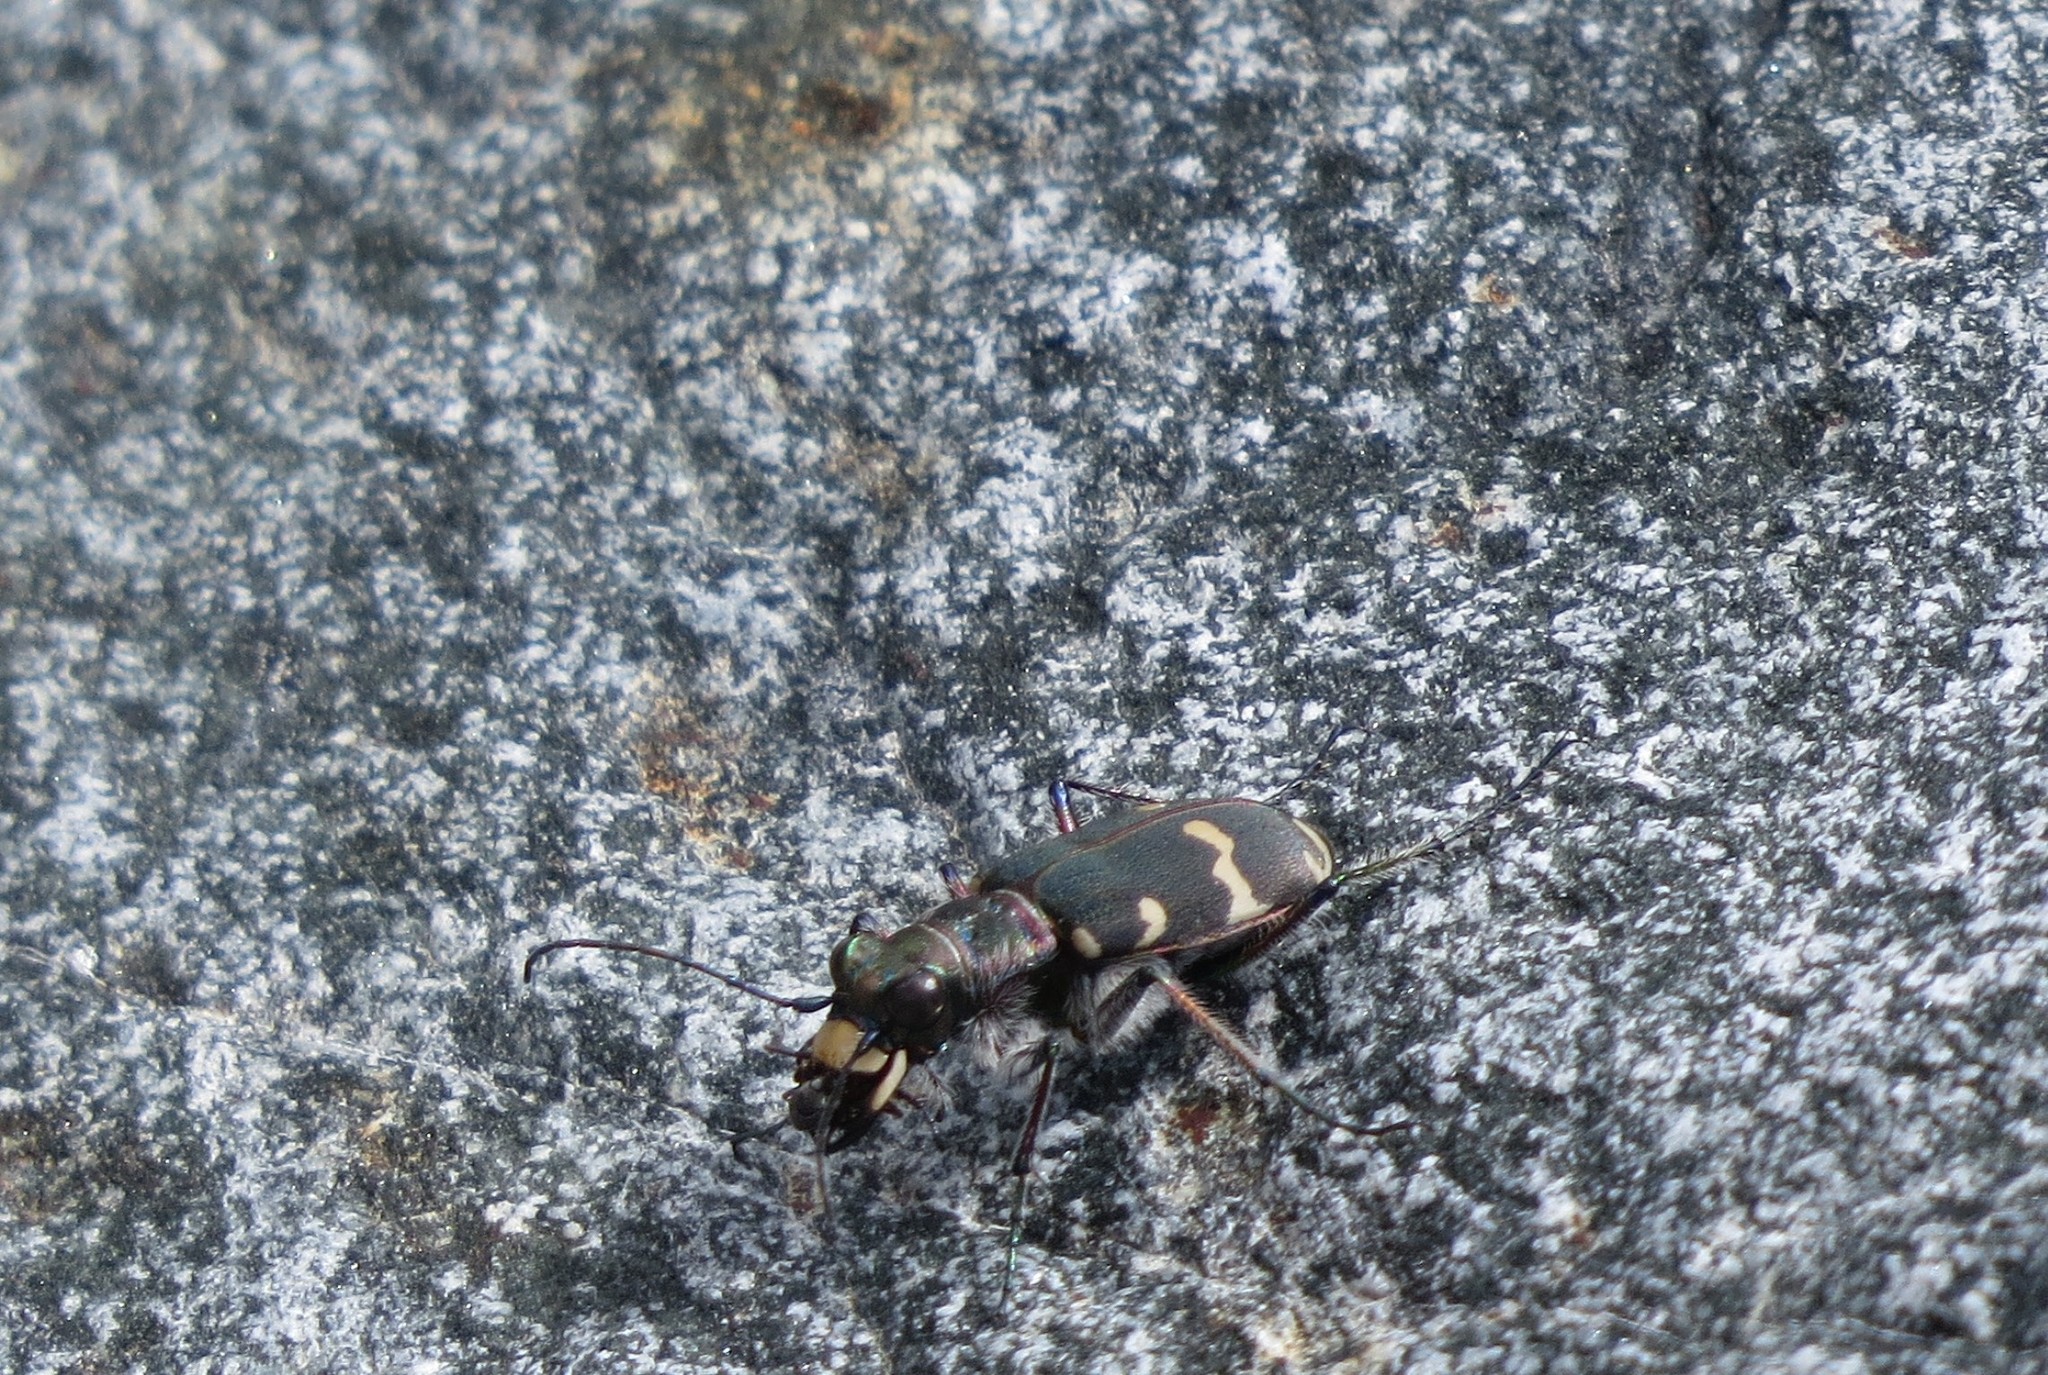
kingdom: Animalia
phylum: Arthropoda
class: Insecta
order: Coleoptera
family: Carabidae
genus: Cicindela
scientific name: Cicindela hybrida
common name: Northern dune tiger beetle
